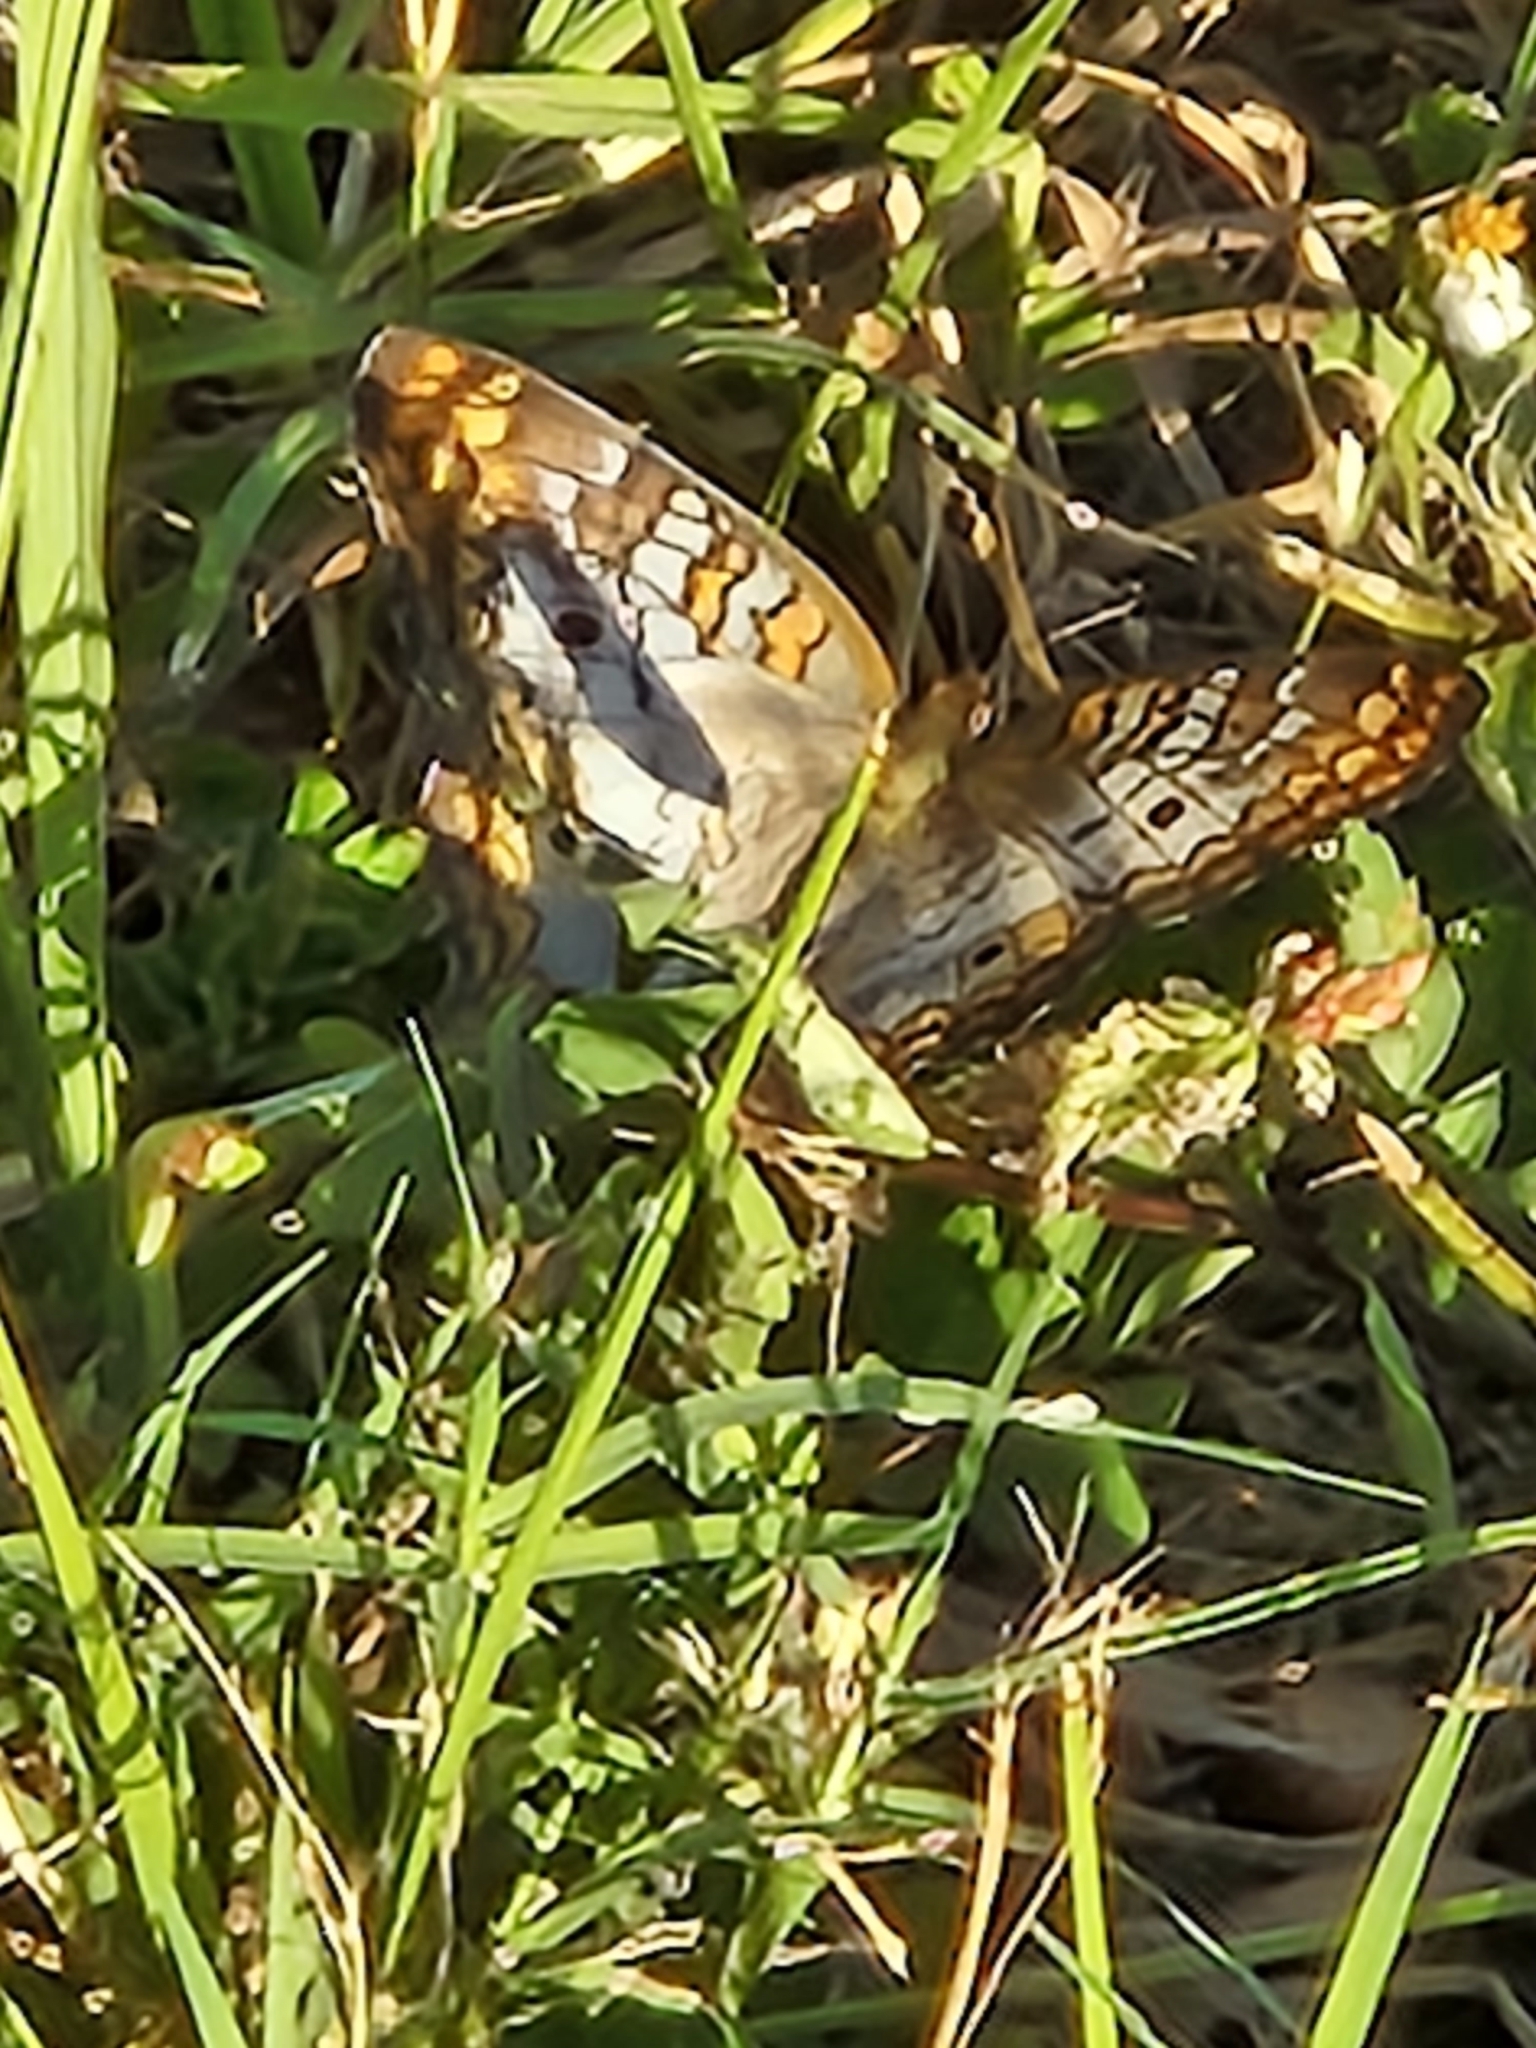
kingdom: Animalia
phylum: Arthropoda
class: Insecta
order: Lepidoptera
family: Nymphalidae
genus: Anartia
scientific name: Anartia jatrophae
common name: White peacock
